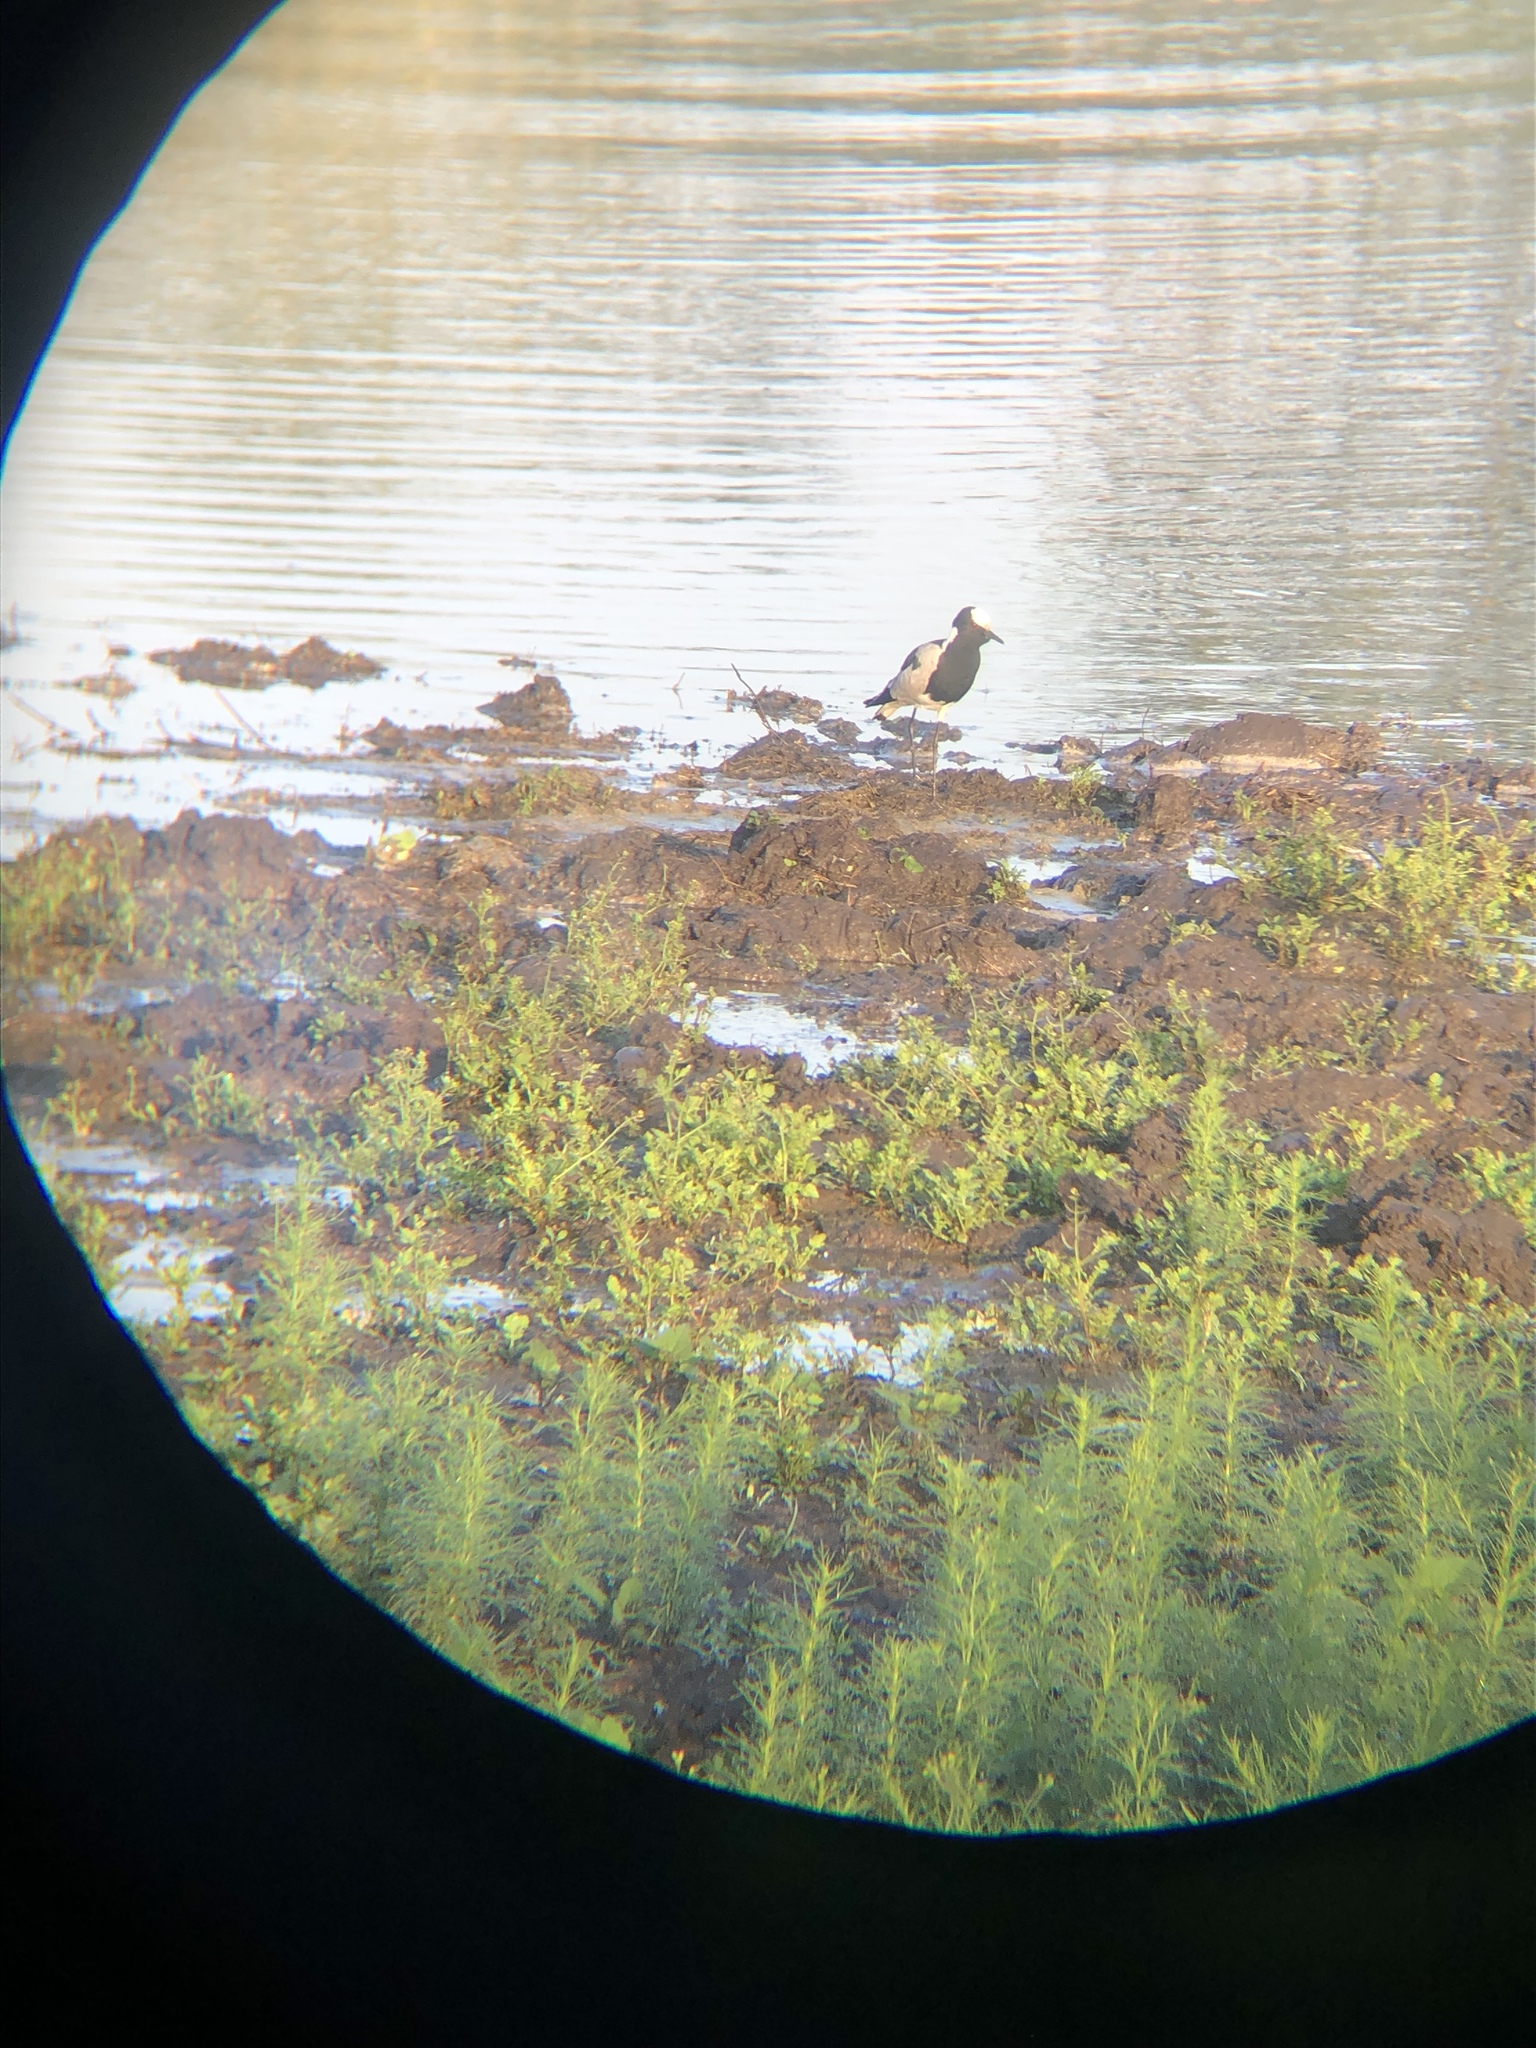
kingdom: Animalia
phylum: Chordata
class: Aves
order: Charadriiformes
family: Charadriidae
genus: Vanellus
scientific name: Vanellus armatus
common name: Blacksmith lapwing
